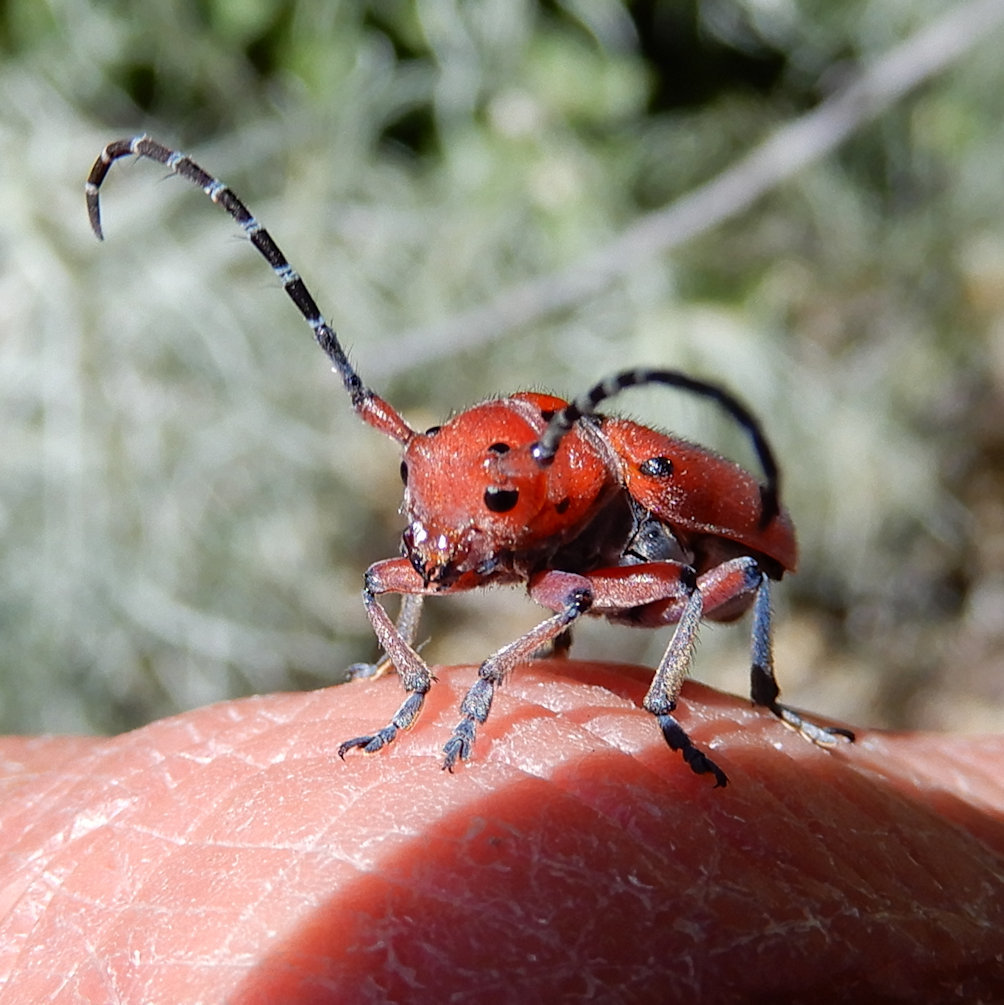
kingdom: Animalia
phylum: Arthropoda
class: Insecta
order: Coleoptera
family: Cerambycidae
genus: Tetraopes
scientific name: Tetraopes femoratus
